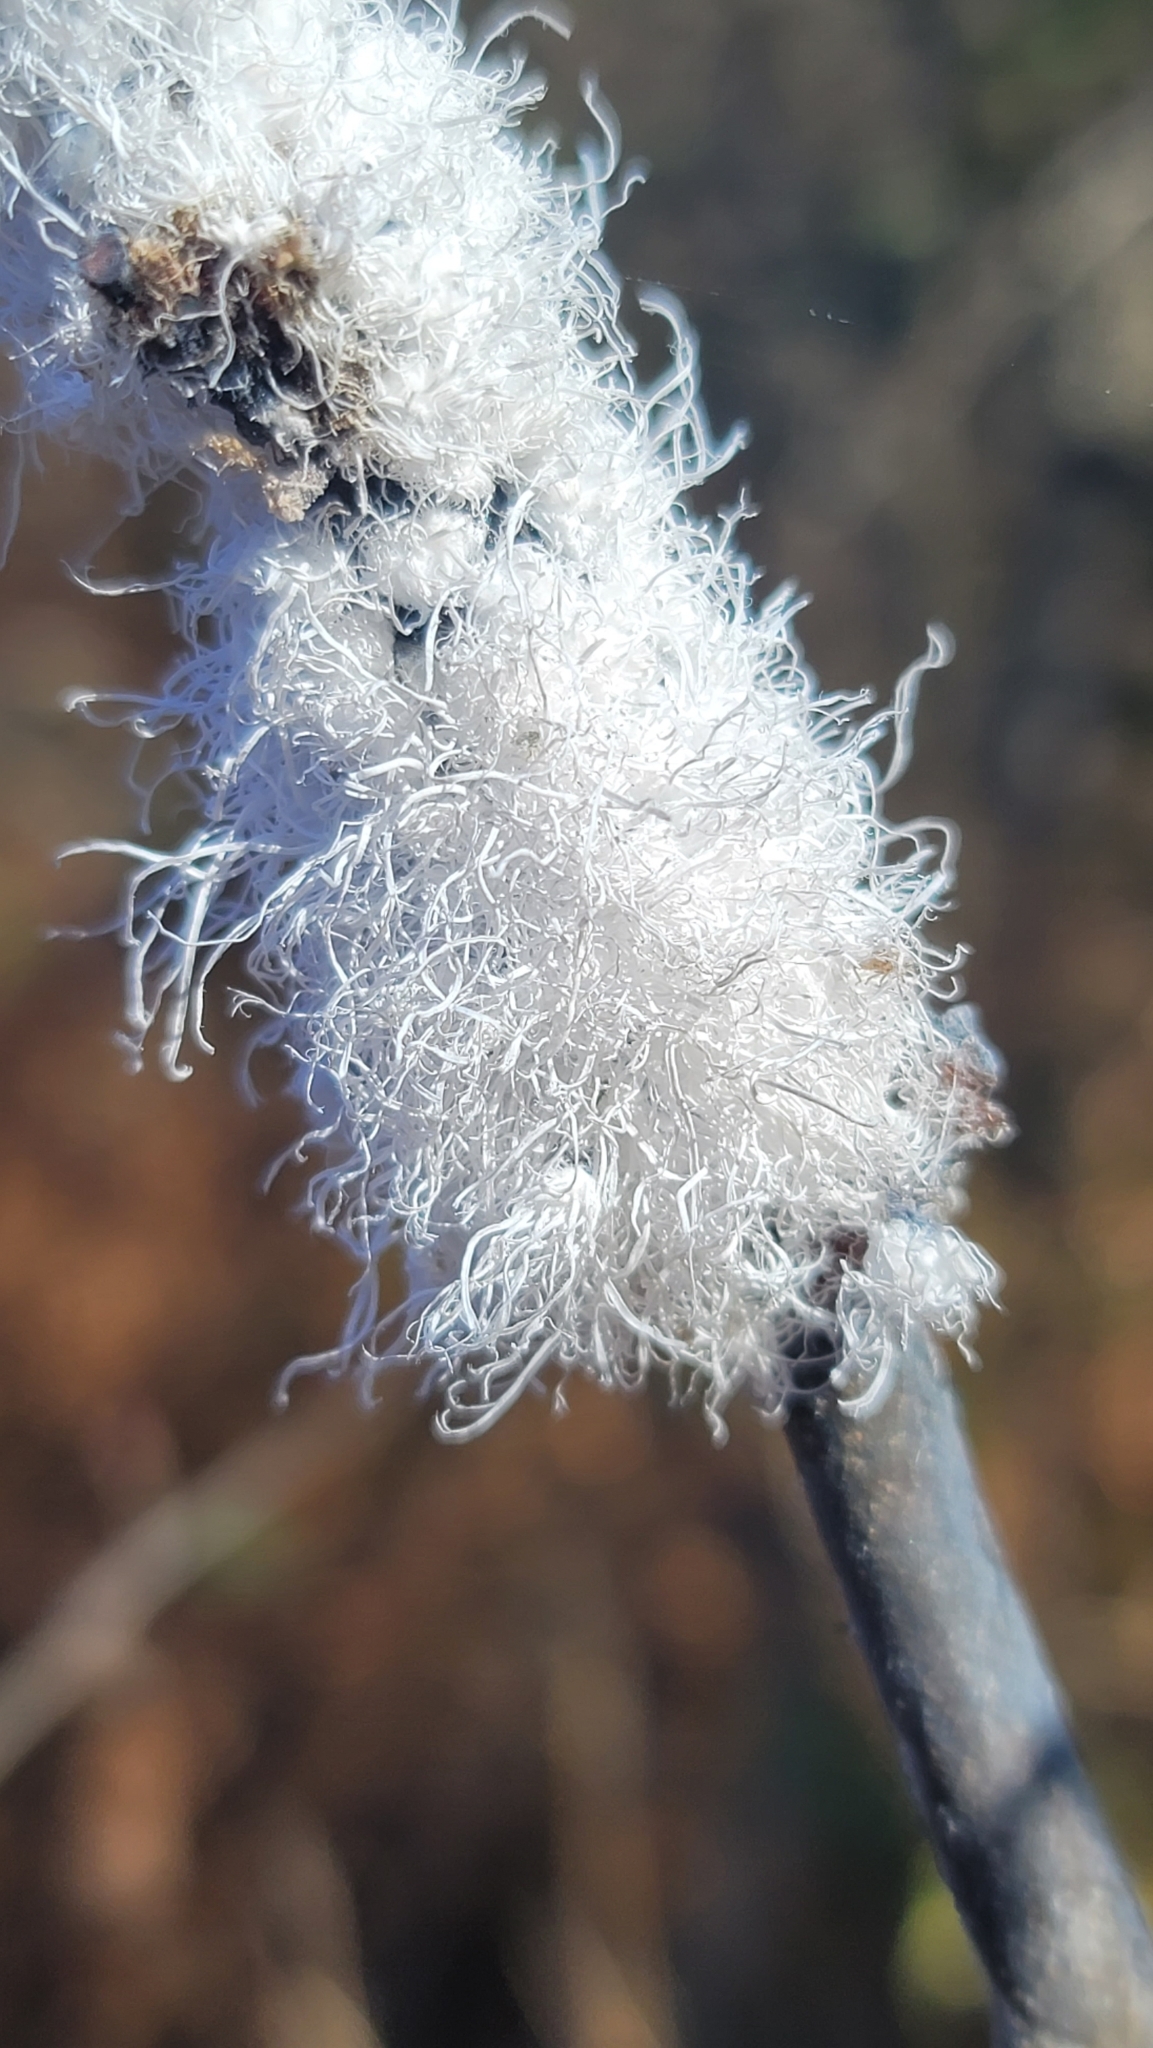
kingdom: Animalia
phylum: Arthropoda
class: Insecta
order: Hemiptera
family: Aphididae
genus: Prociphilus
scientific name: Prociphilus tessellatus
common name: Woolly alder aphid
